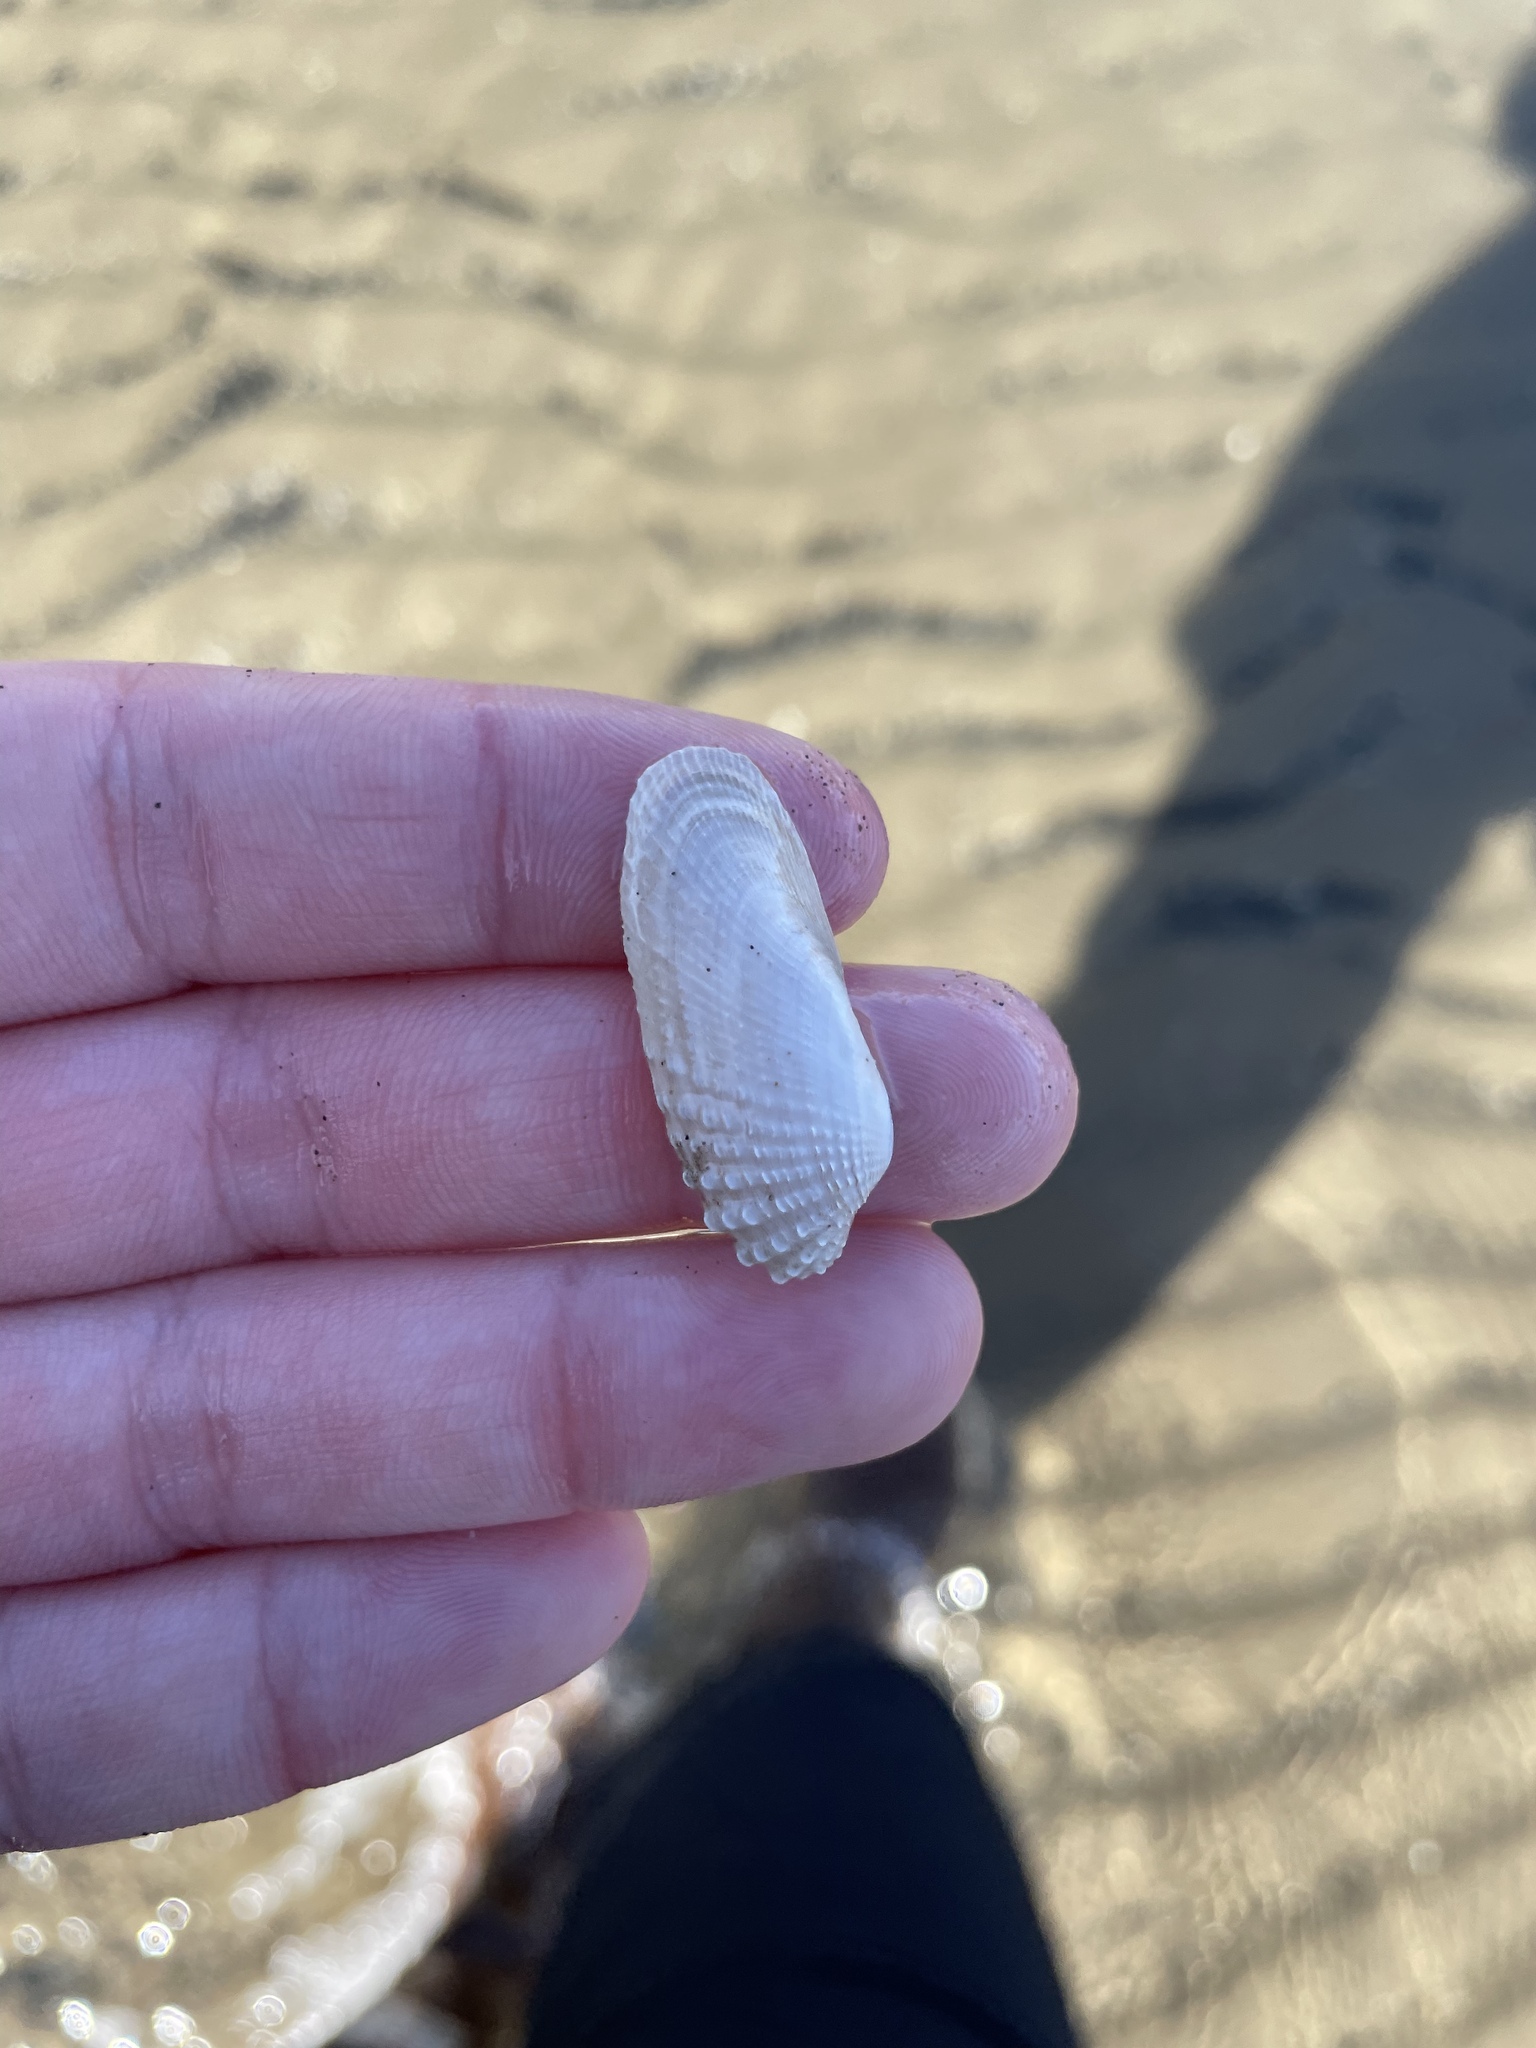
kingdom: Animalia
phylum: Mollusca
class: Bivalvia
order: Venerida
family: Veneridae
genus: Petricolaria
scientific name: Petricolaria pholadiformis
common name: American piddock
